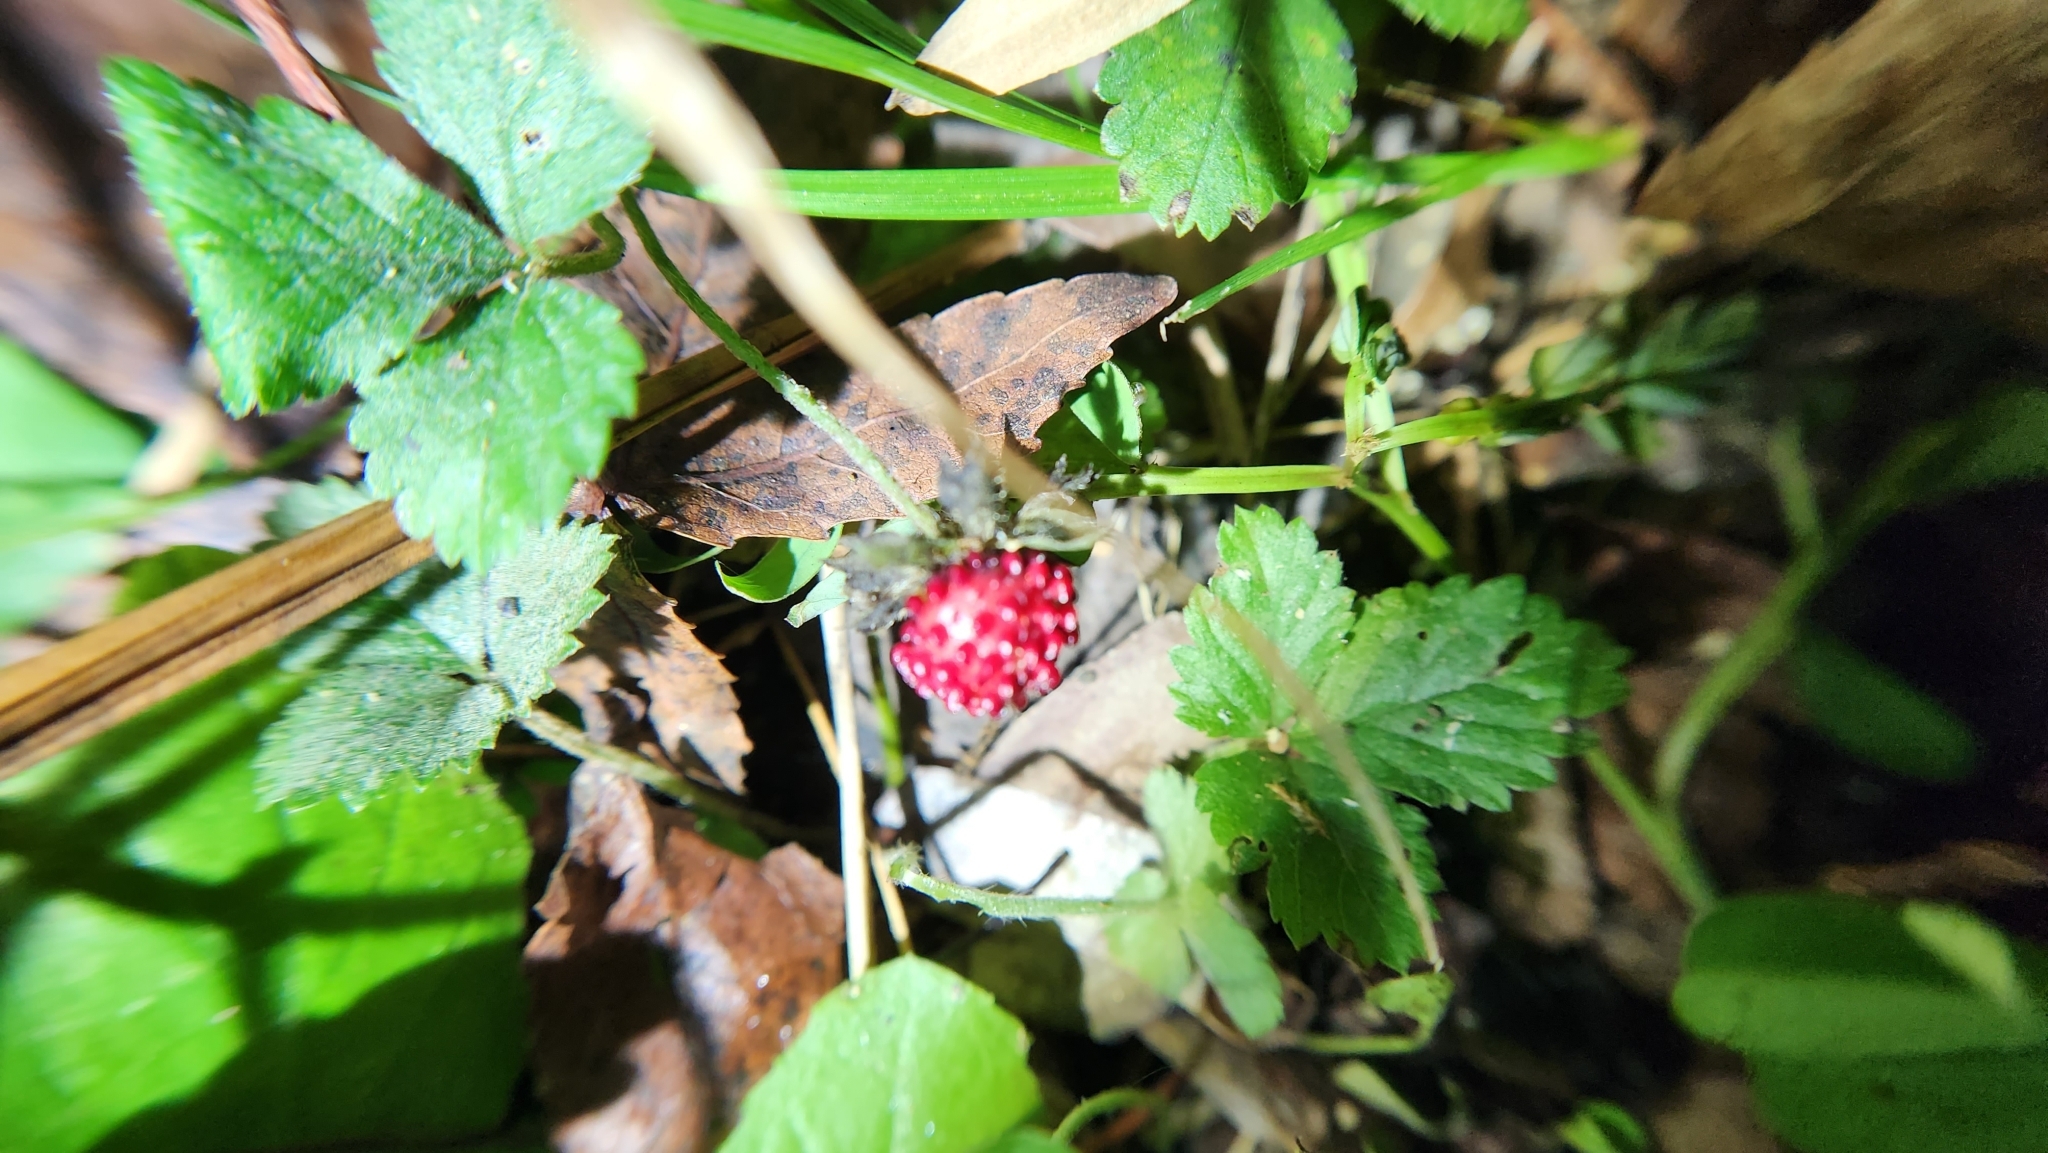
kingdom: Plantae
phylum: Tracheophyta
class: Magnoliopsida
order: Rosales
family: Rosaceae
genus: Potentilla
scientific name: Potentilla indica
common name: Yellow-flowered strawberry
